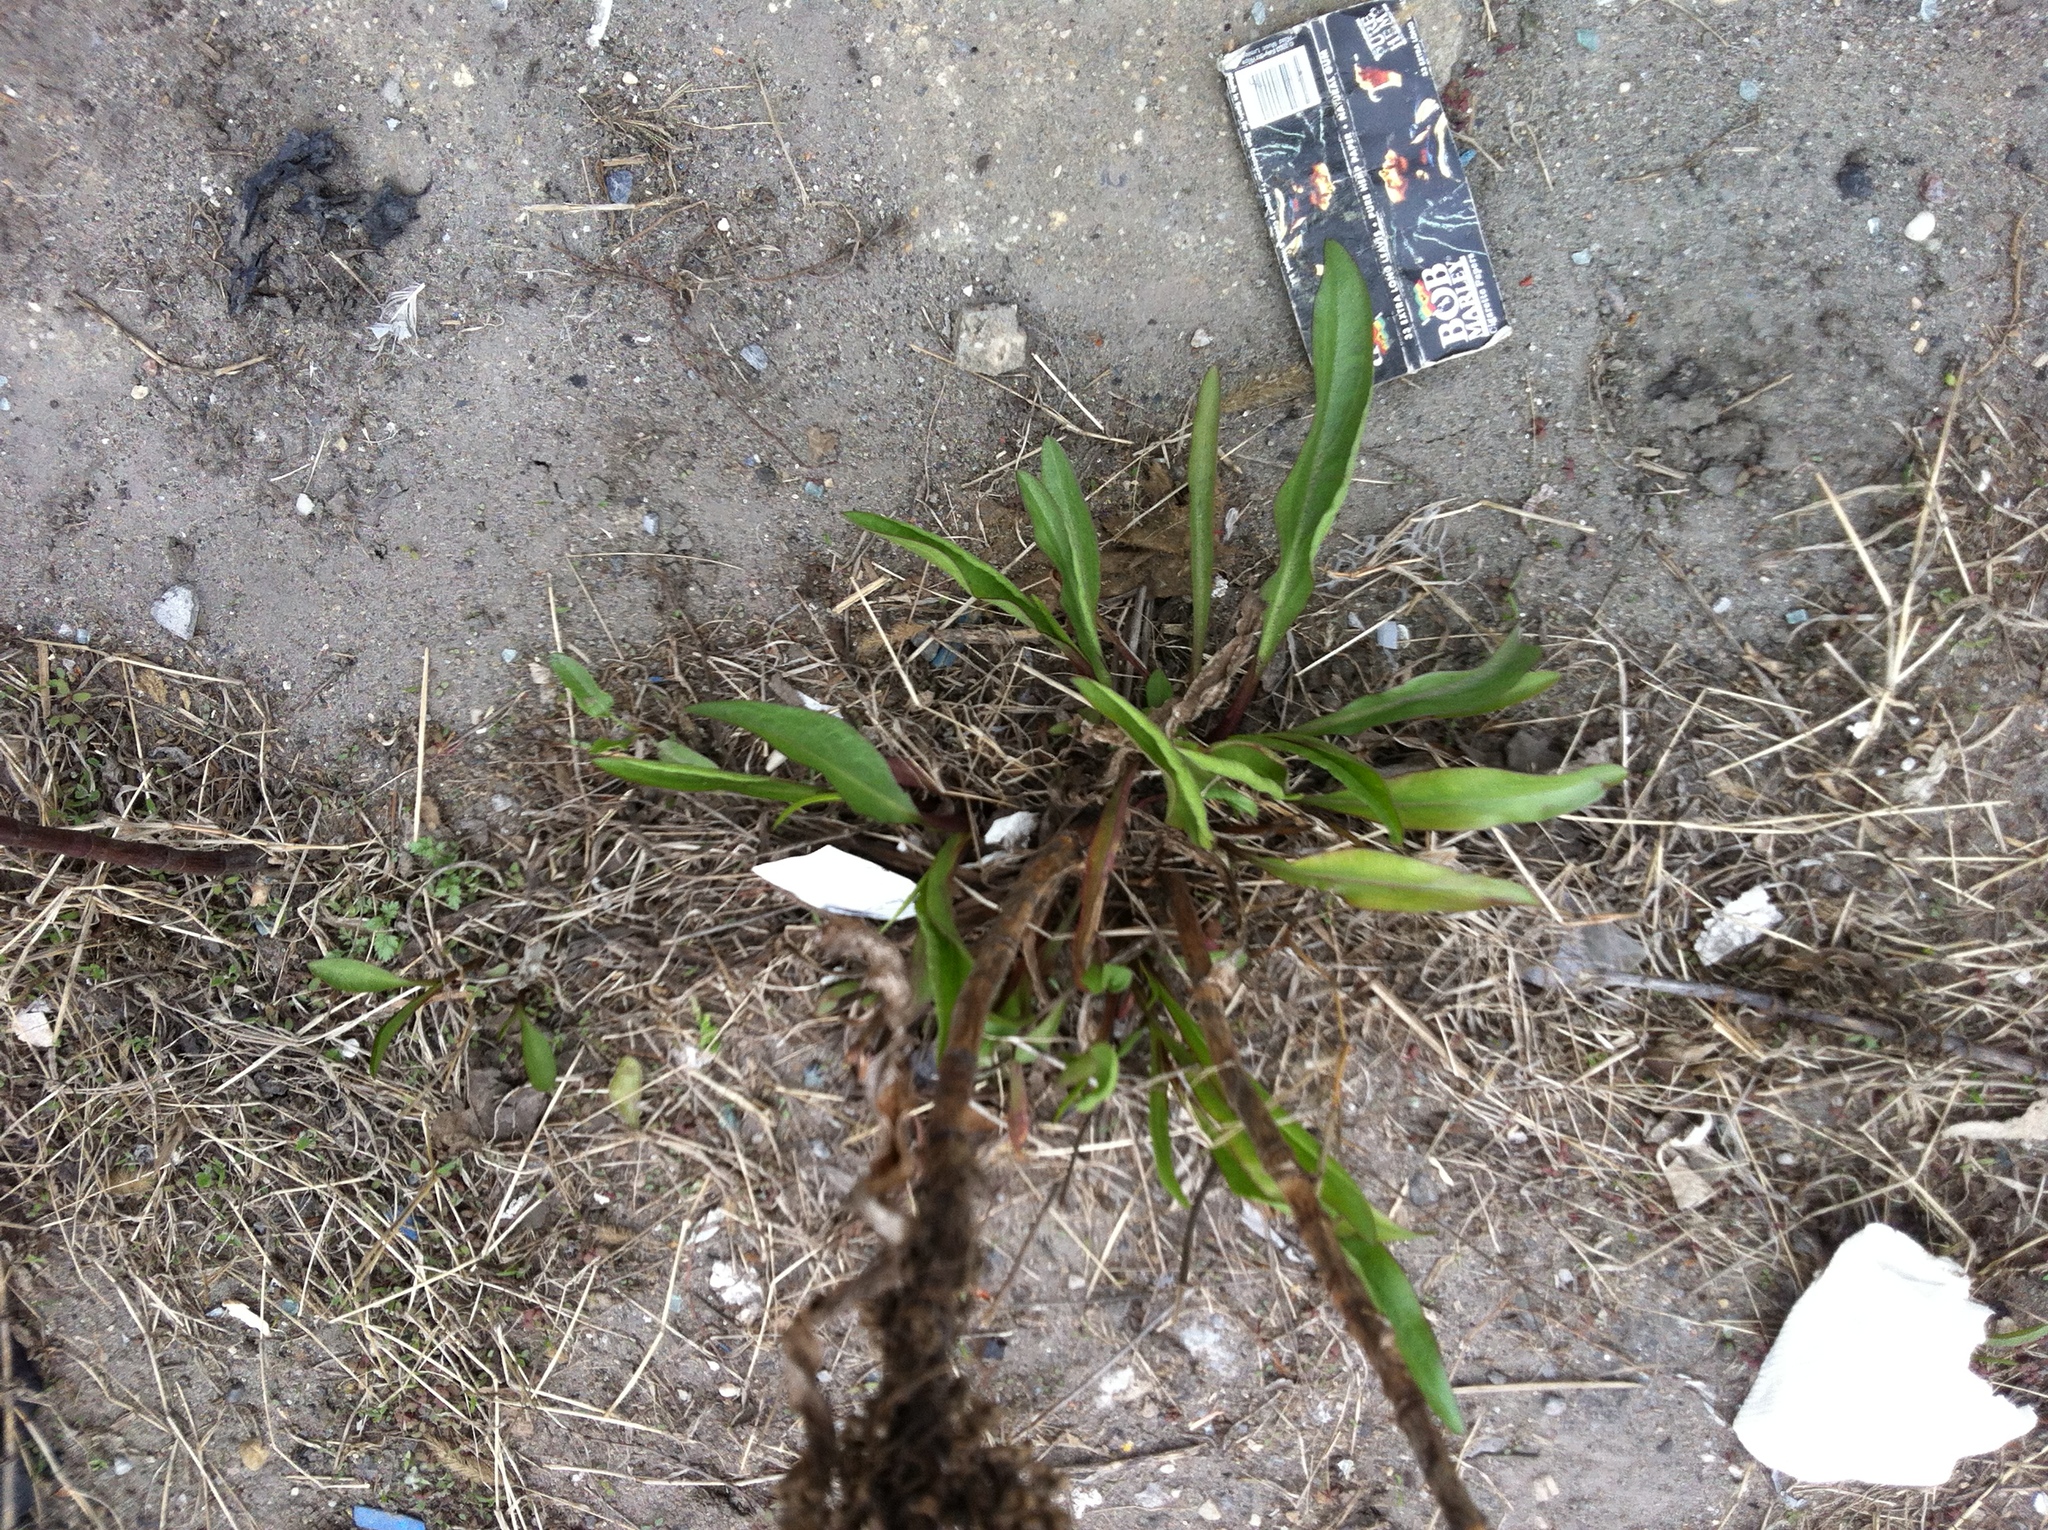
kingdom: Plantae
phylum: Tracheophyta
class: Magnoliopsida
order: Asterales
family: Asteraceae
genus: Solidago
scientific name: Solidago sempervirens
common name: Salt-marsh goldenrod
